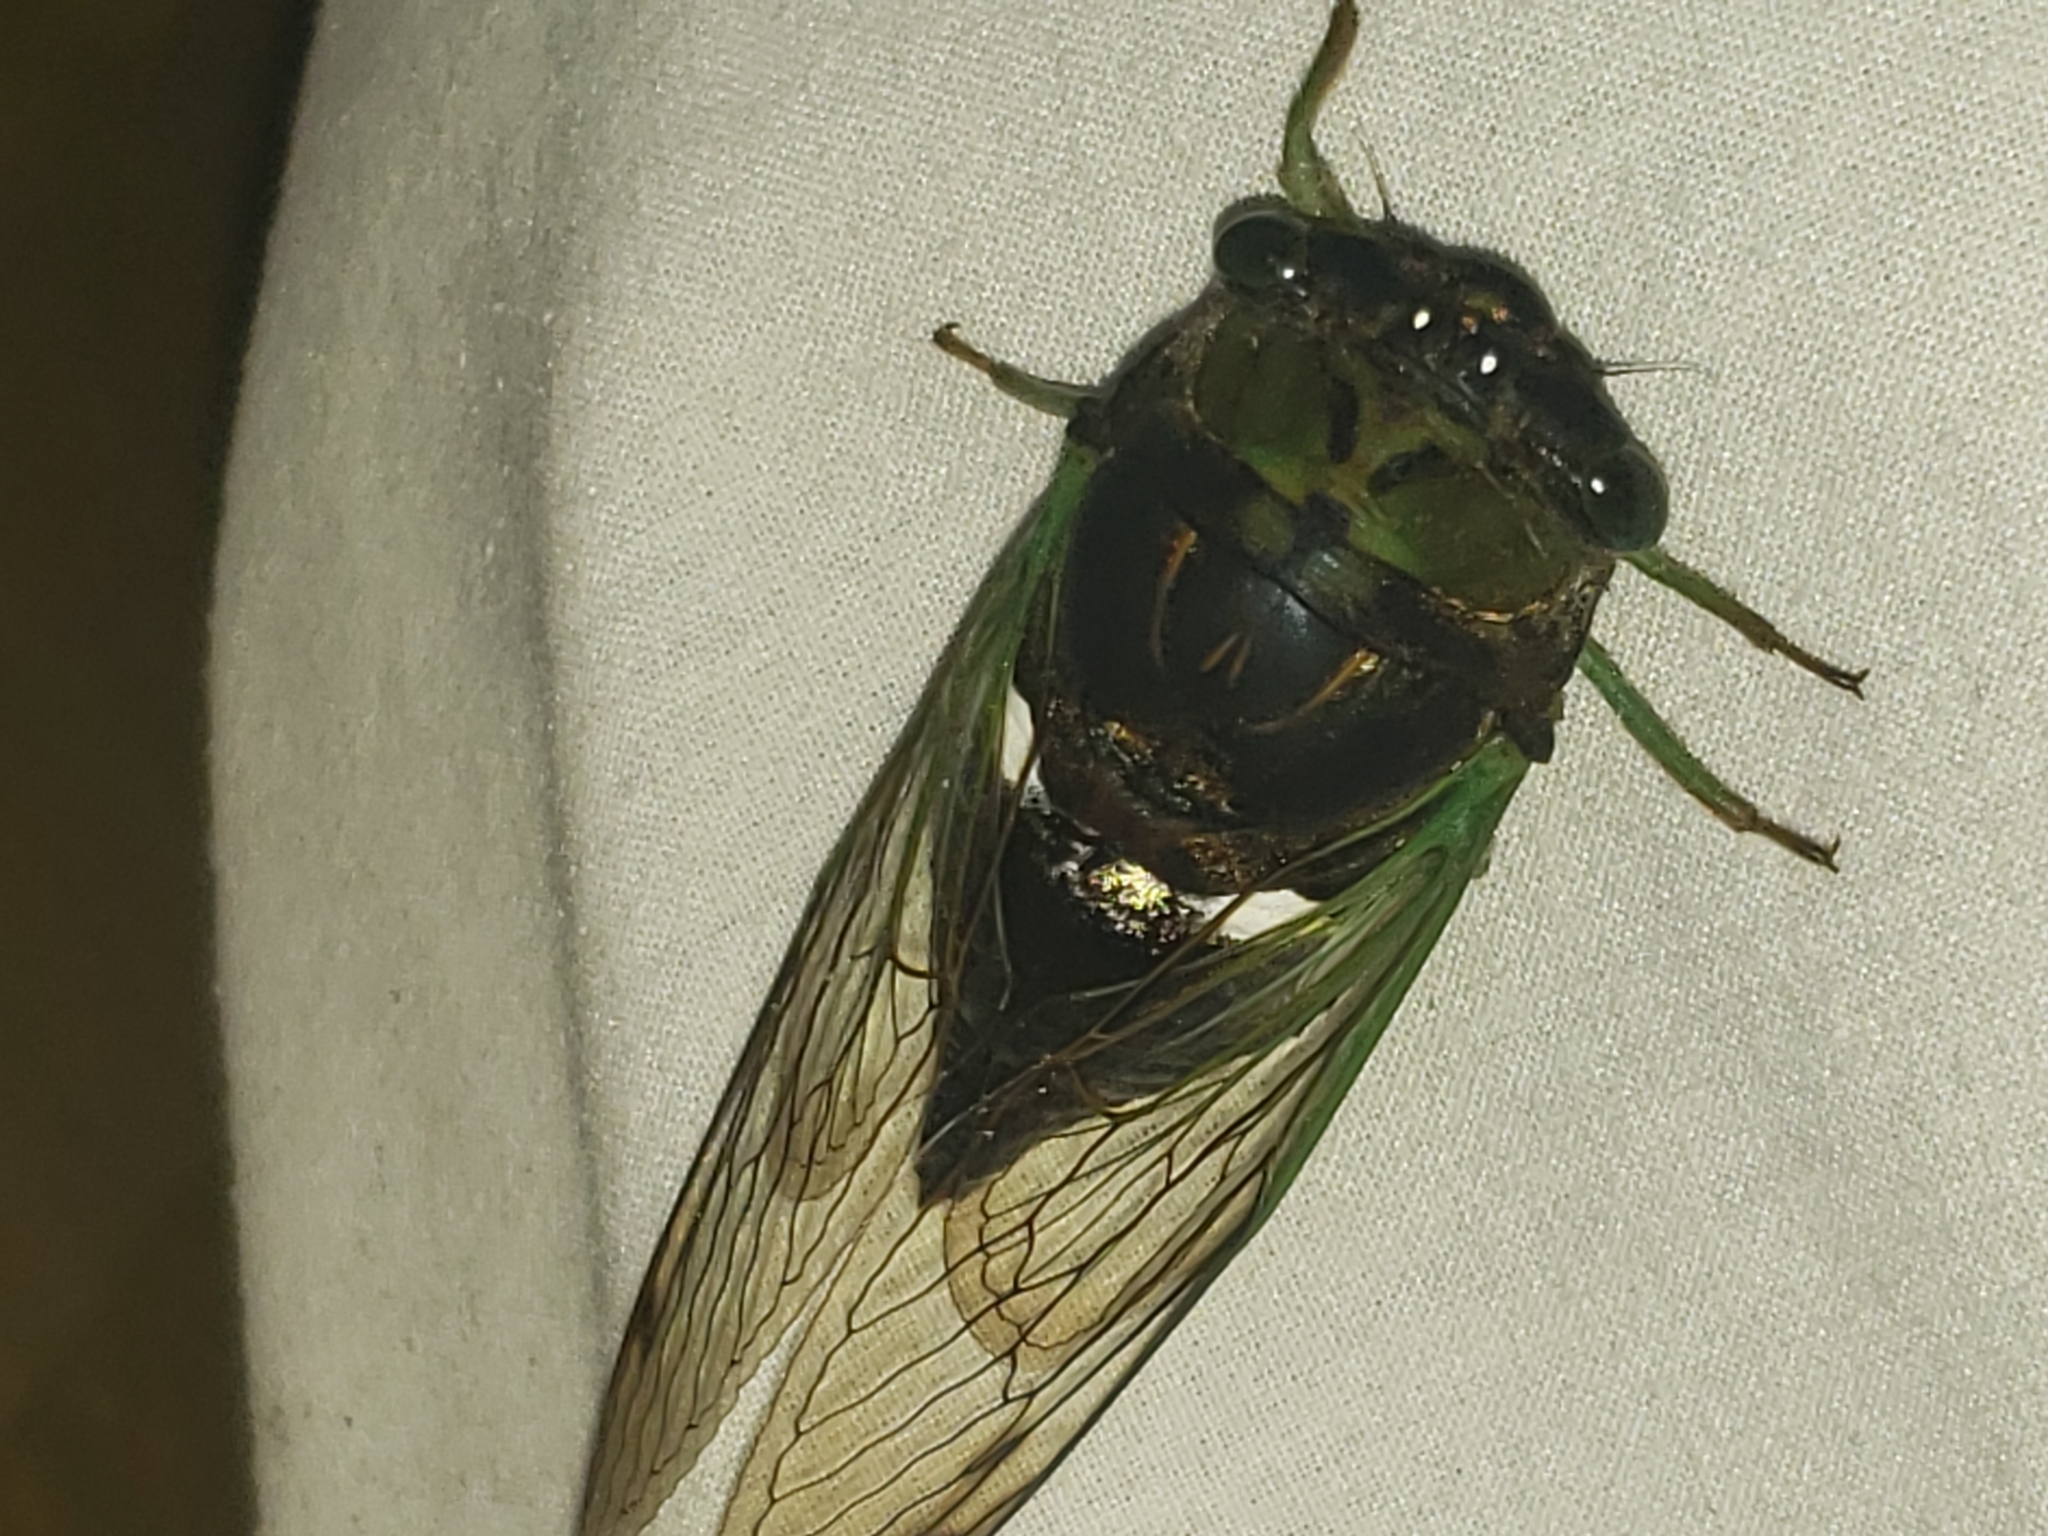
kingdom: Animalia
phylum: Arthropoda
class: Insecta
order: Hemiptera
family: Cicadidae
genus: Neotibicen
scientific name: Neotibicen tibicen
